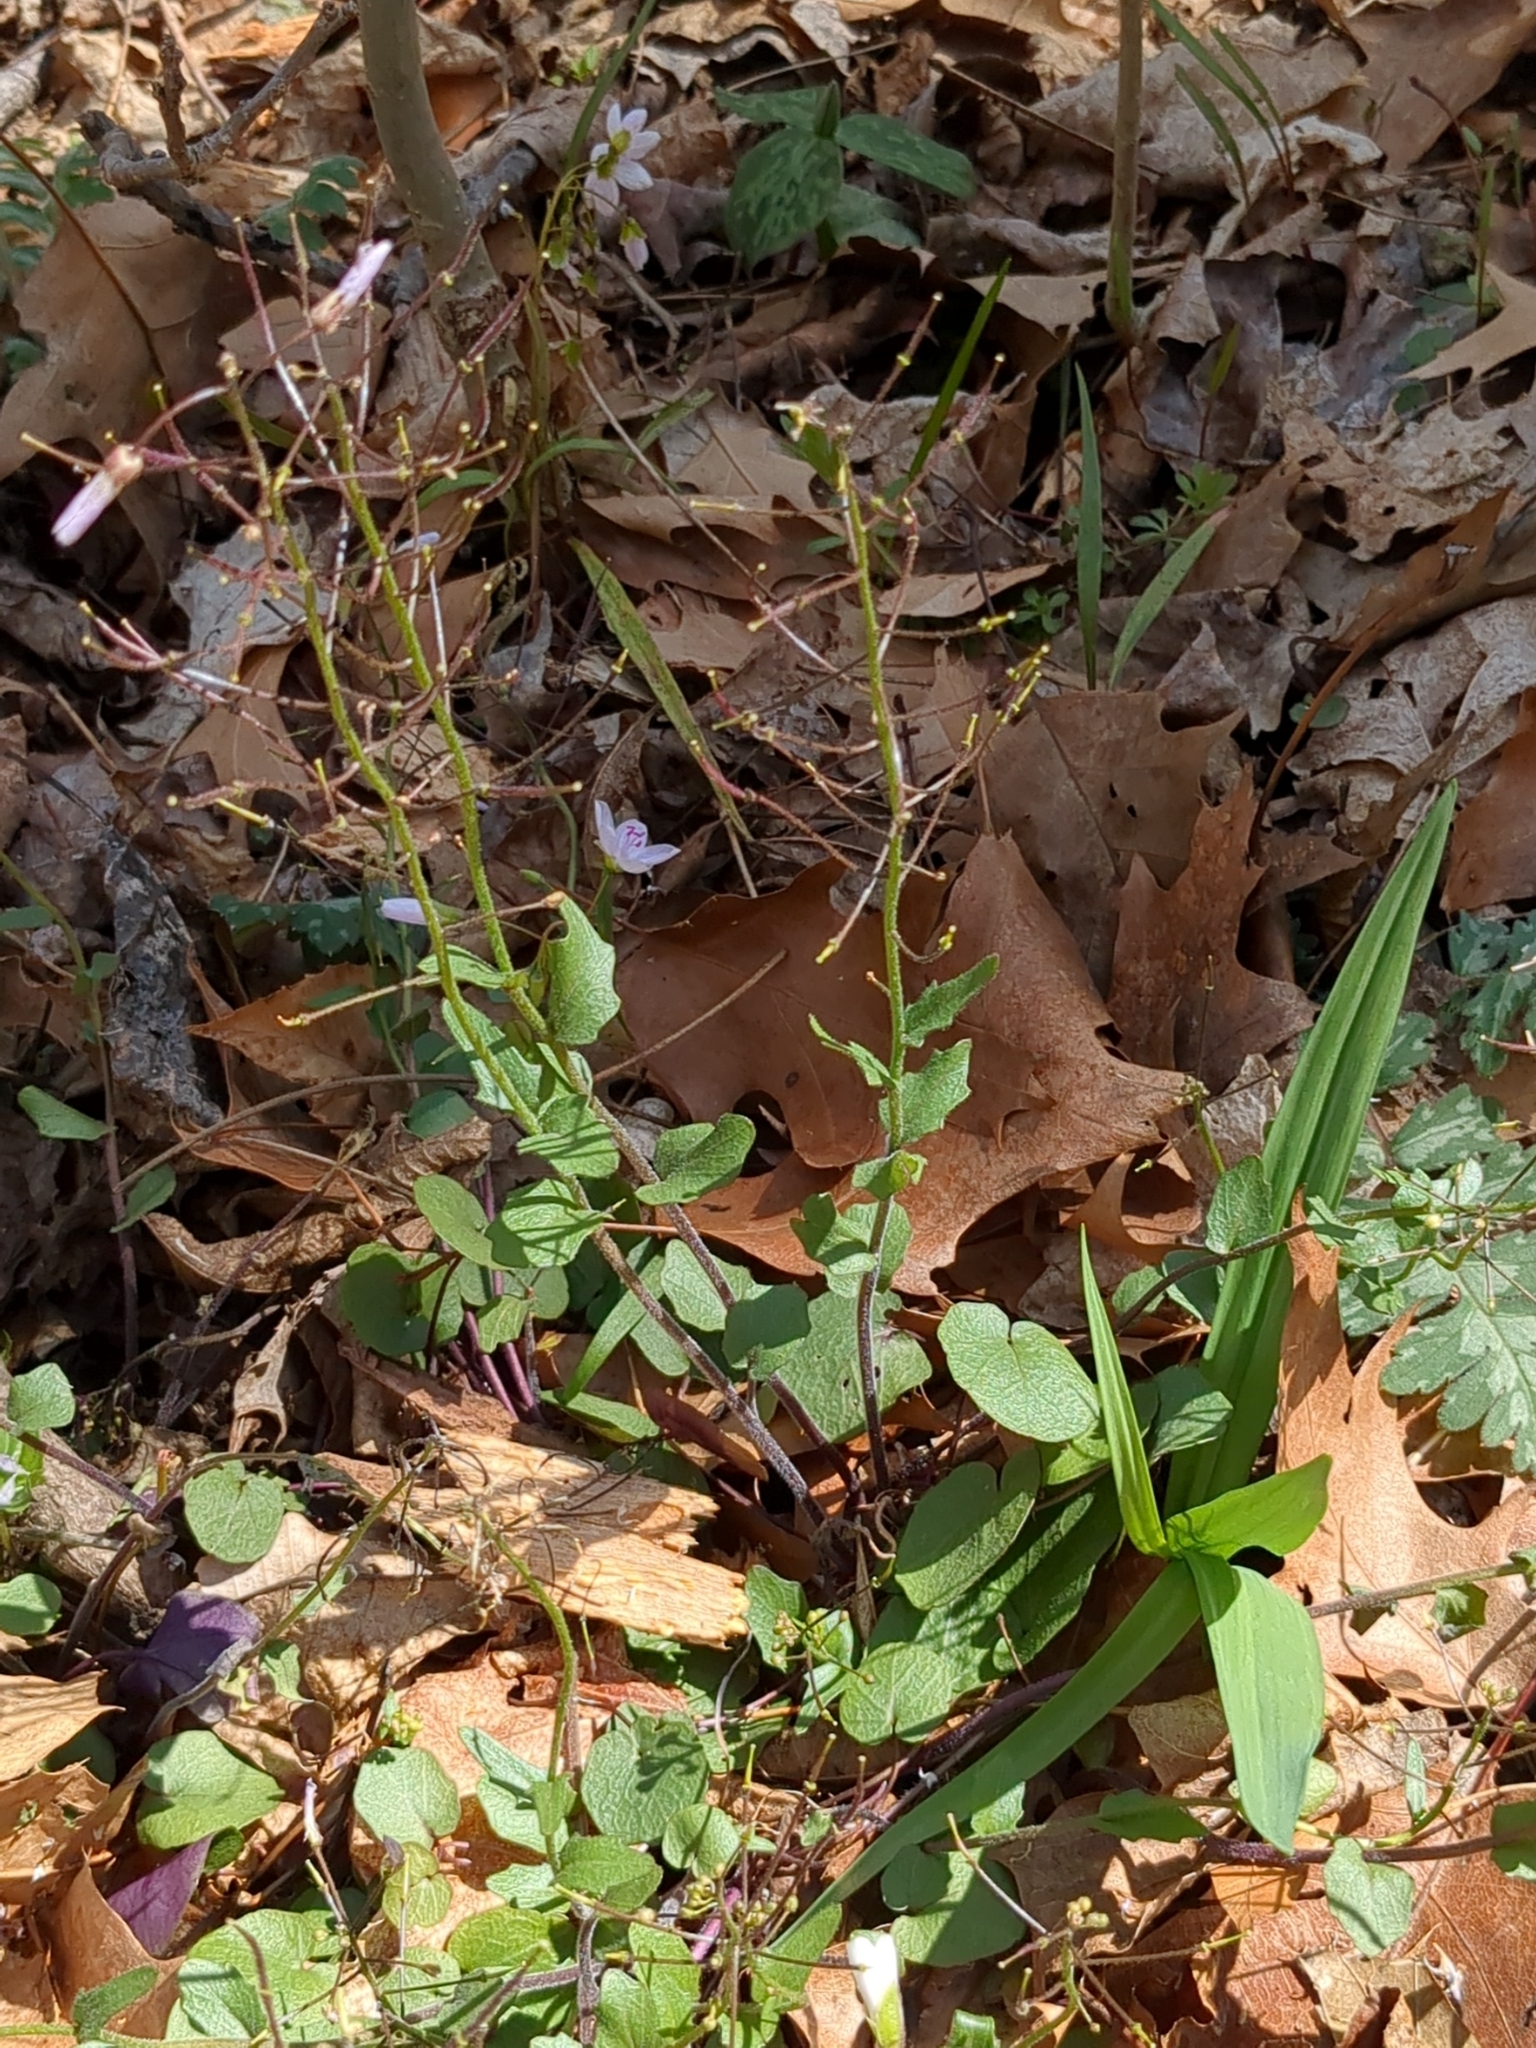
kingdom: Plantae
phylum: Tracheophyta
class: Magnoliopsida
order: Brassicales
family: Brassicaceae
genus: Cardamine
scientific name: Cardamine douglassii
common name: Purple cress
